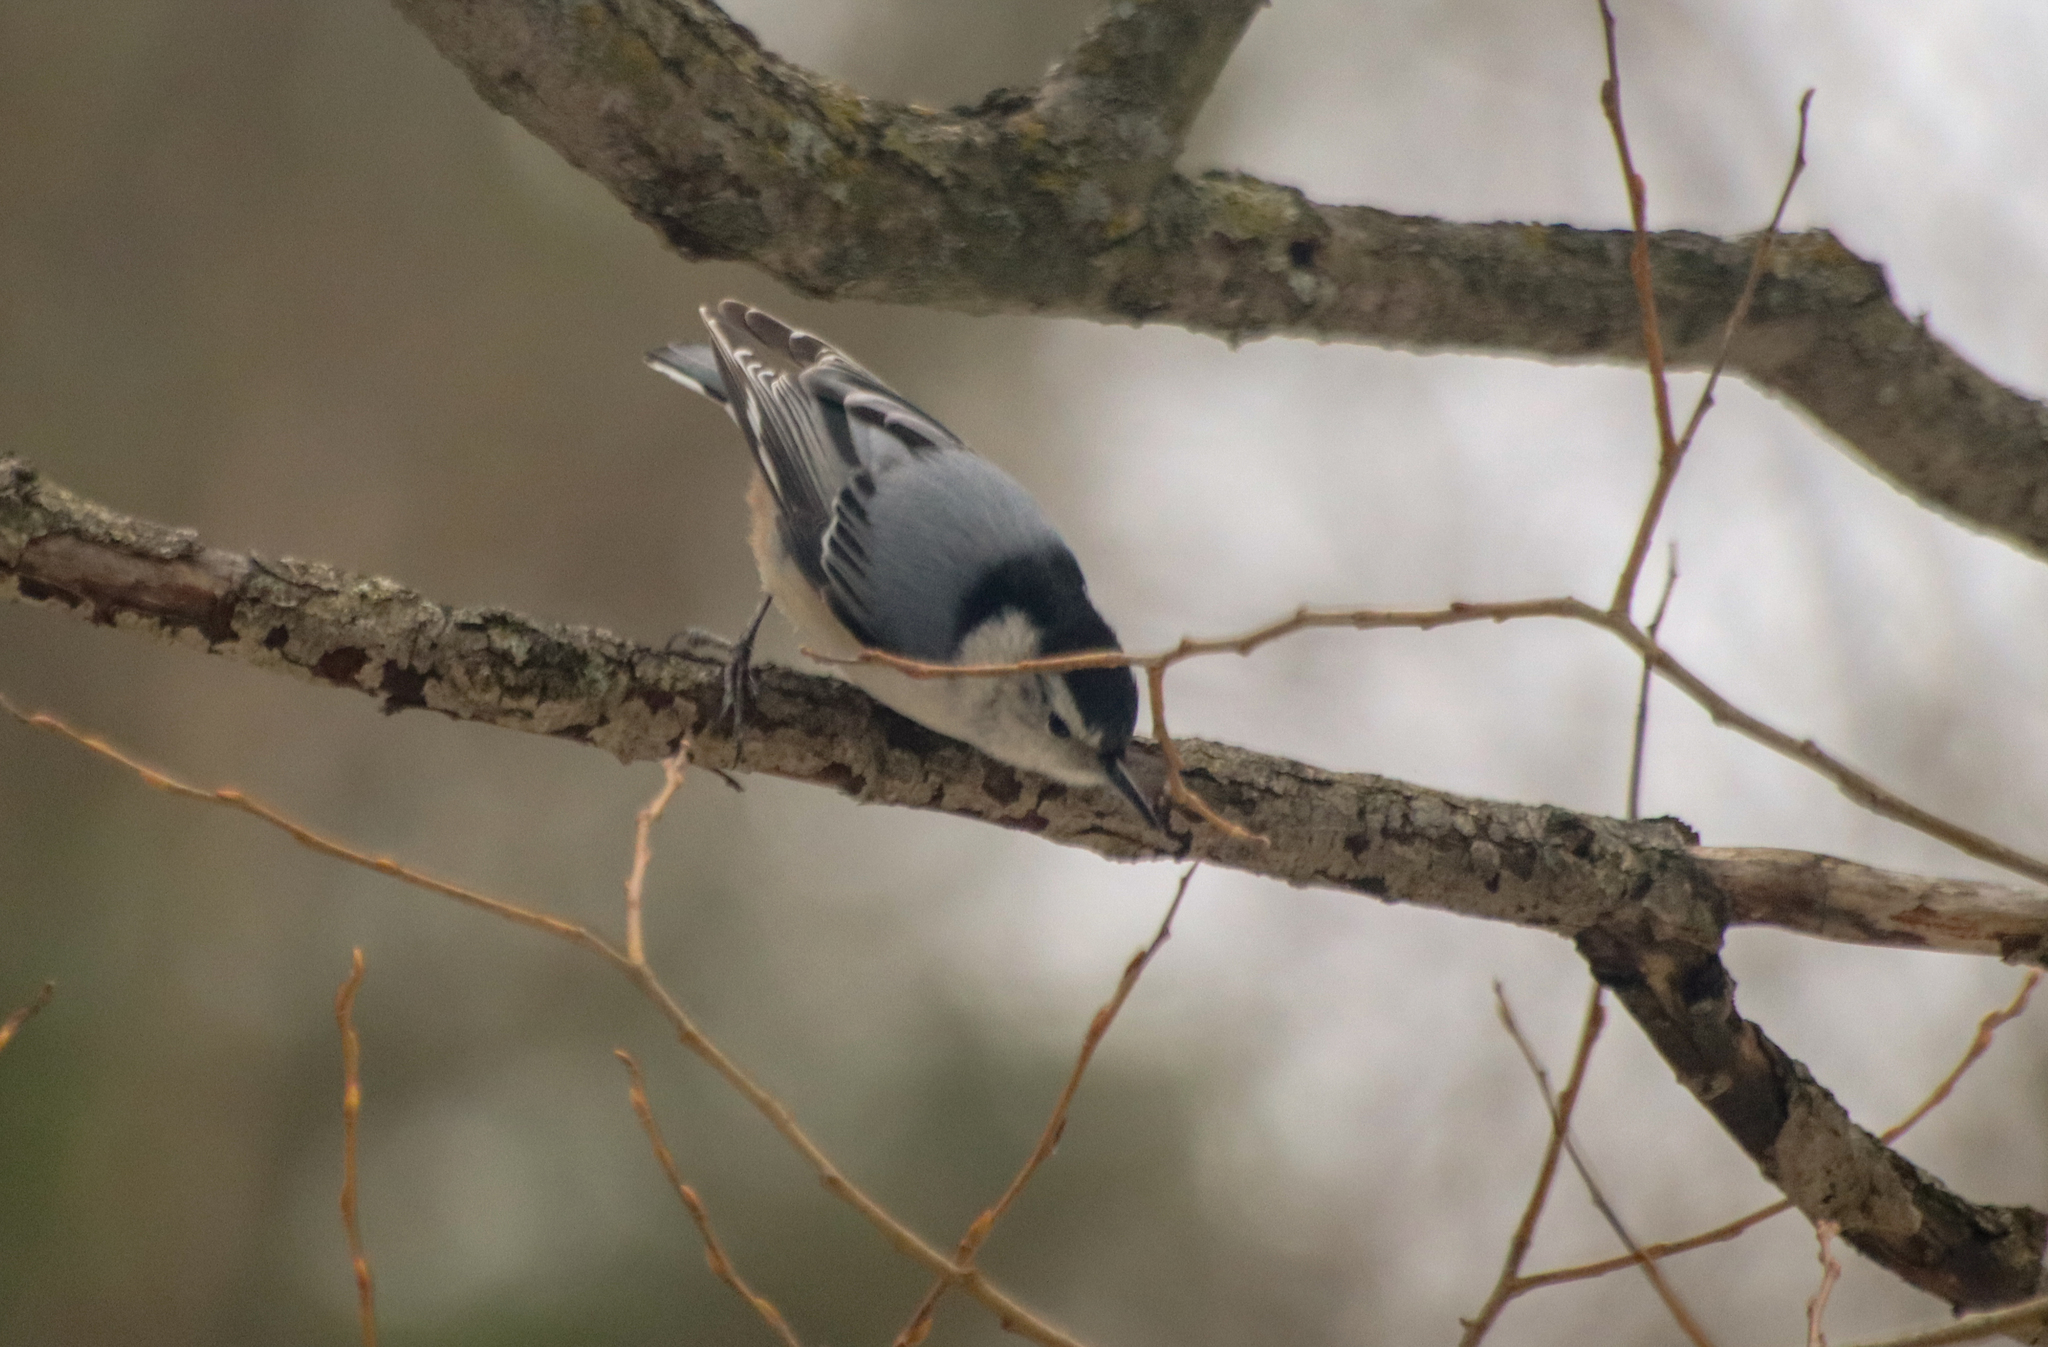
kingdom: Animalia
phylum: Chordata
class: Aves
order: Passeriformes
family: Sittidae
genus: Sitta
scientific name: Sitta carolinensis
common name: White-breasted nuthatch
